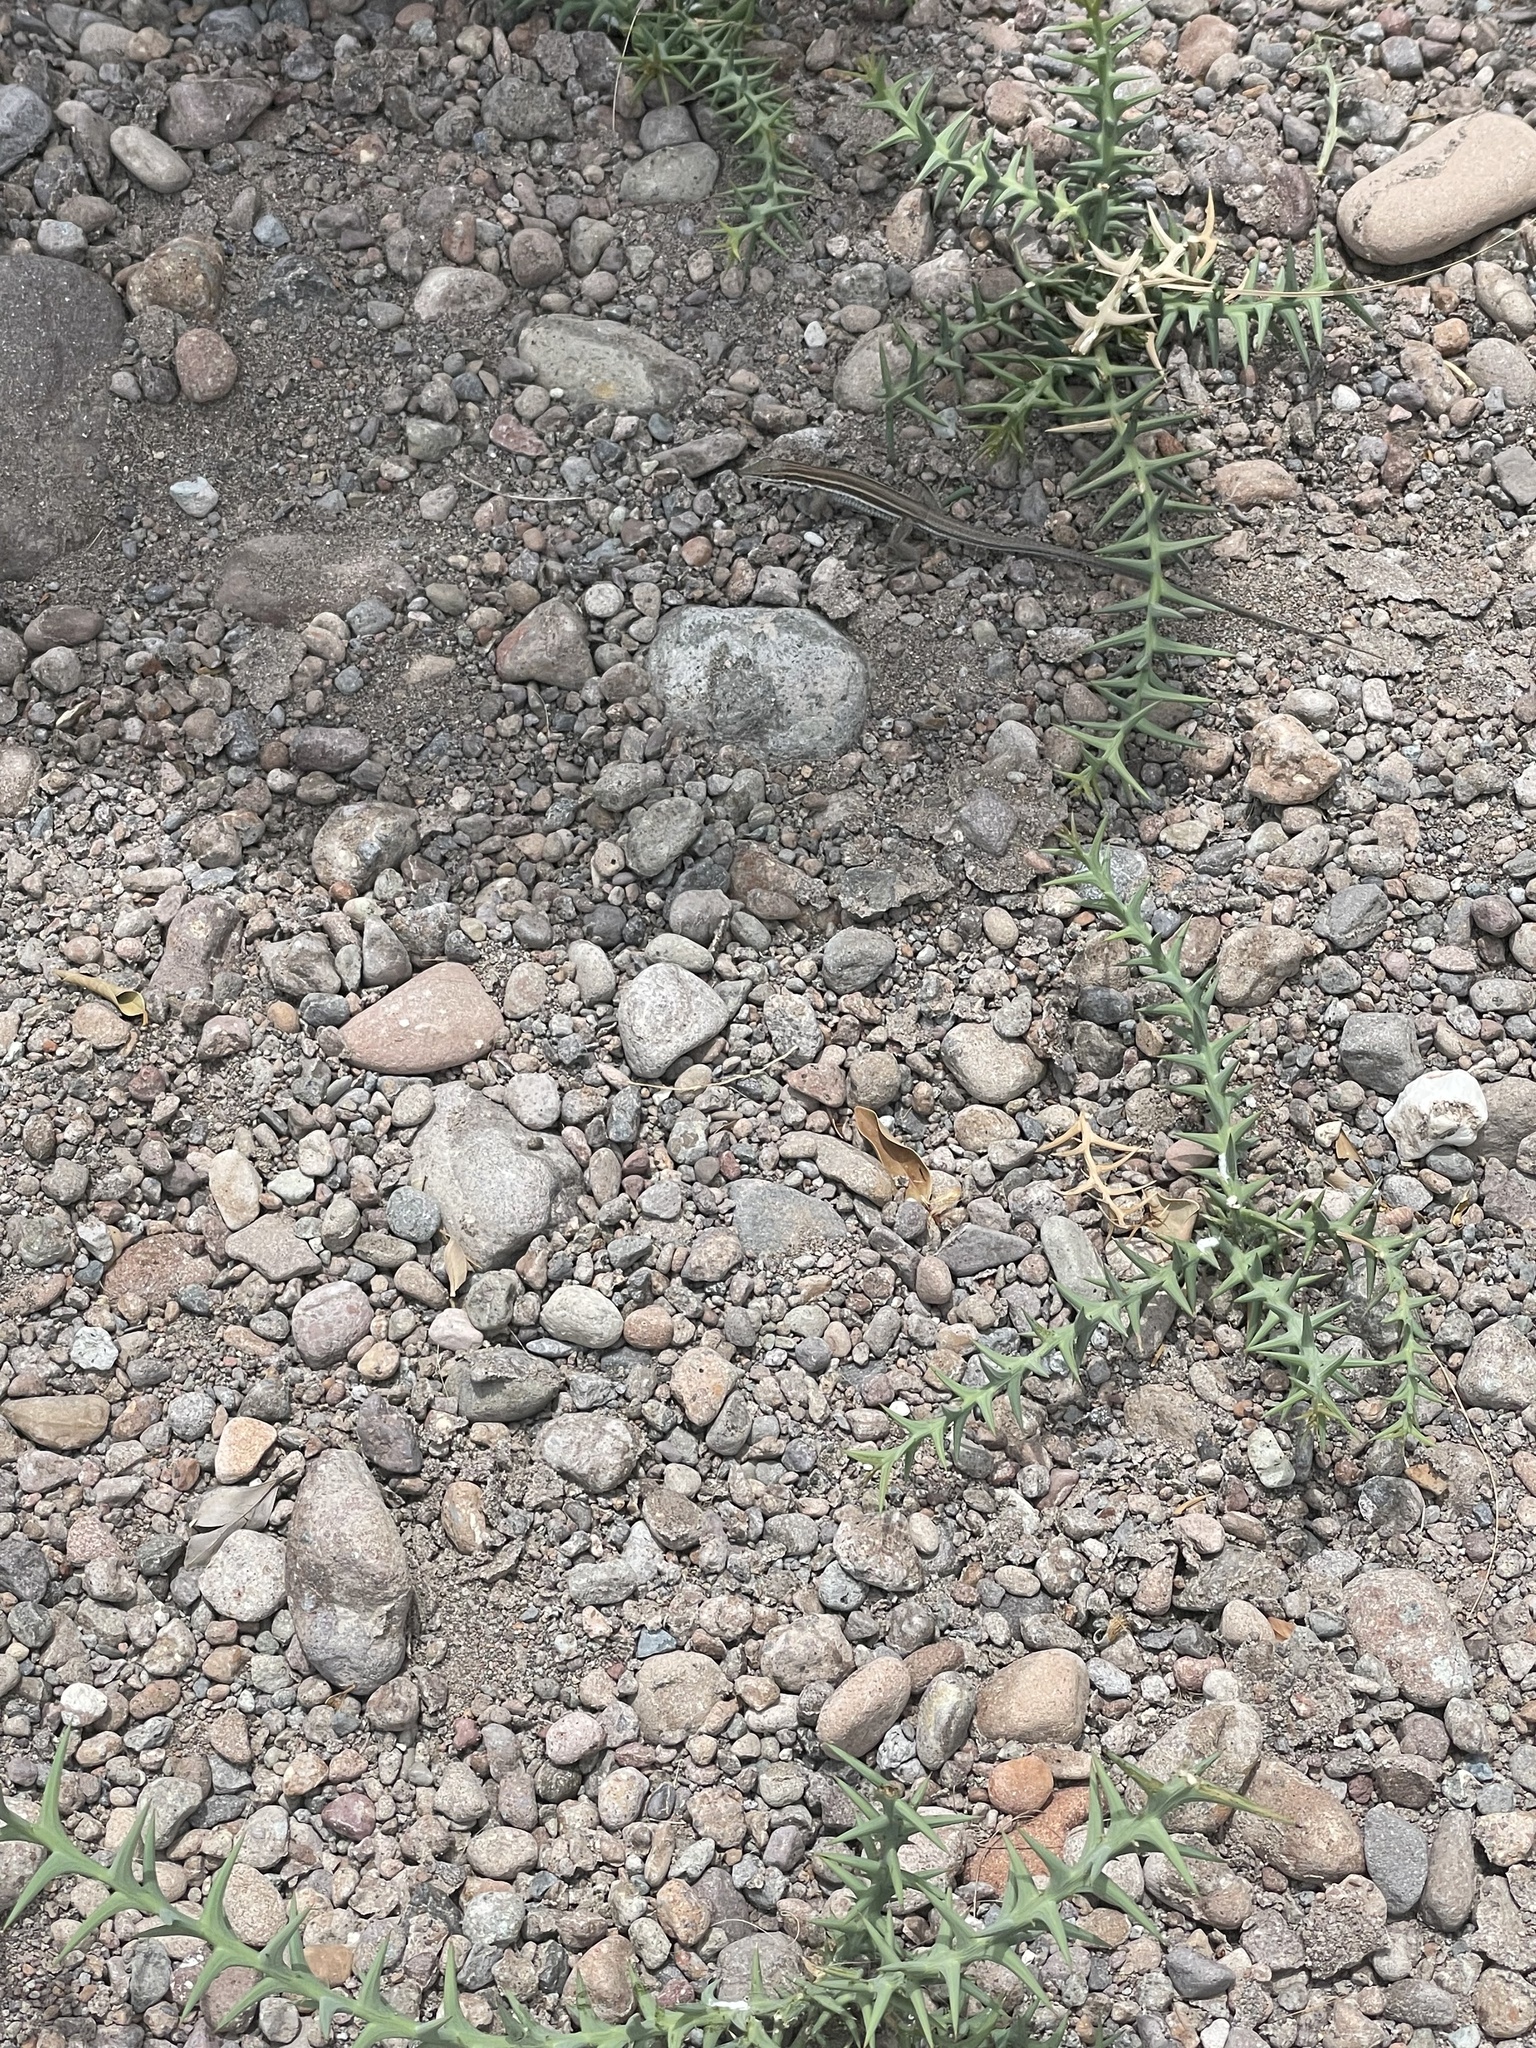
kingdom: Animalia
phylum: Chordata
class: Squamata
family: Teiidae
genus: Aspidoscelis
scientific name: Aspidoscelis hyperythrus
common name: Orange-throated race-runner
